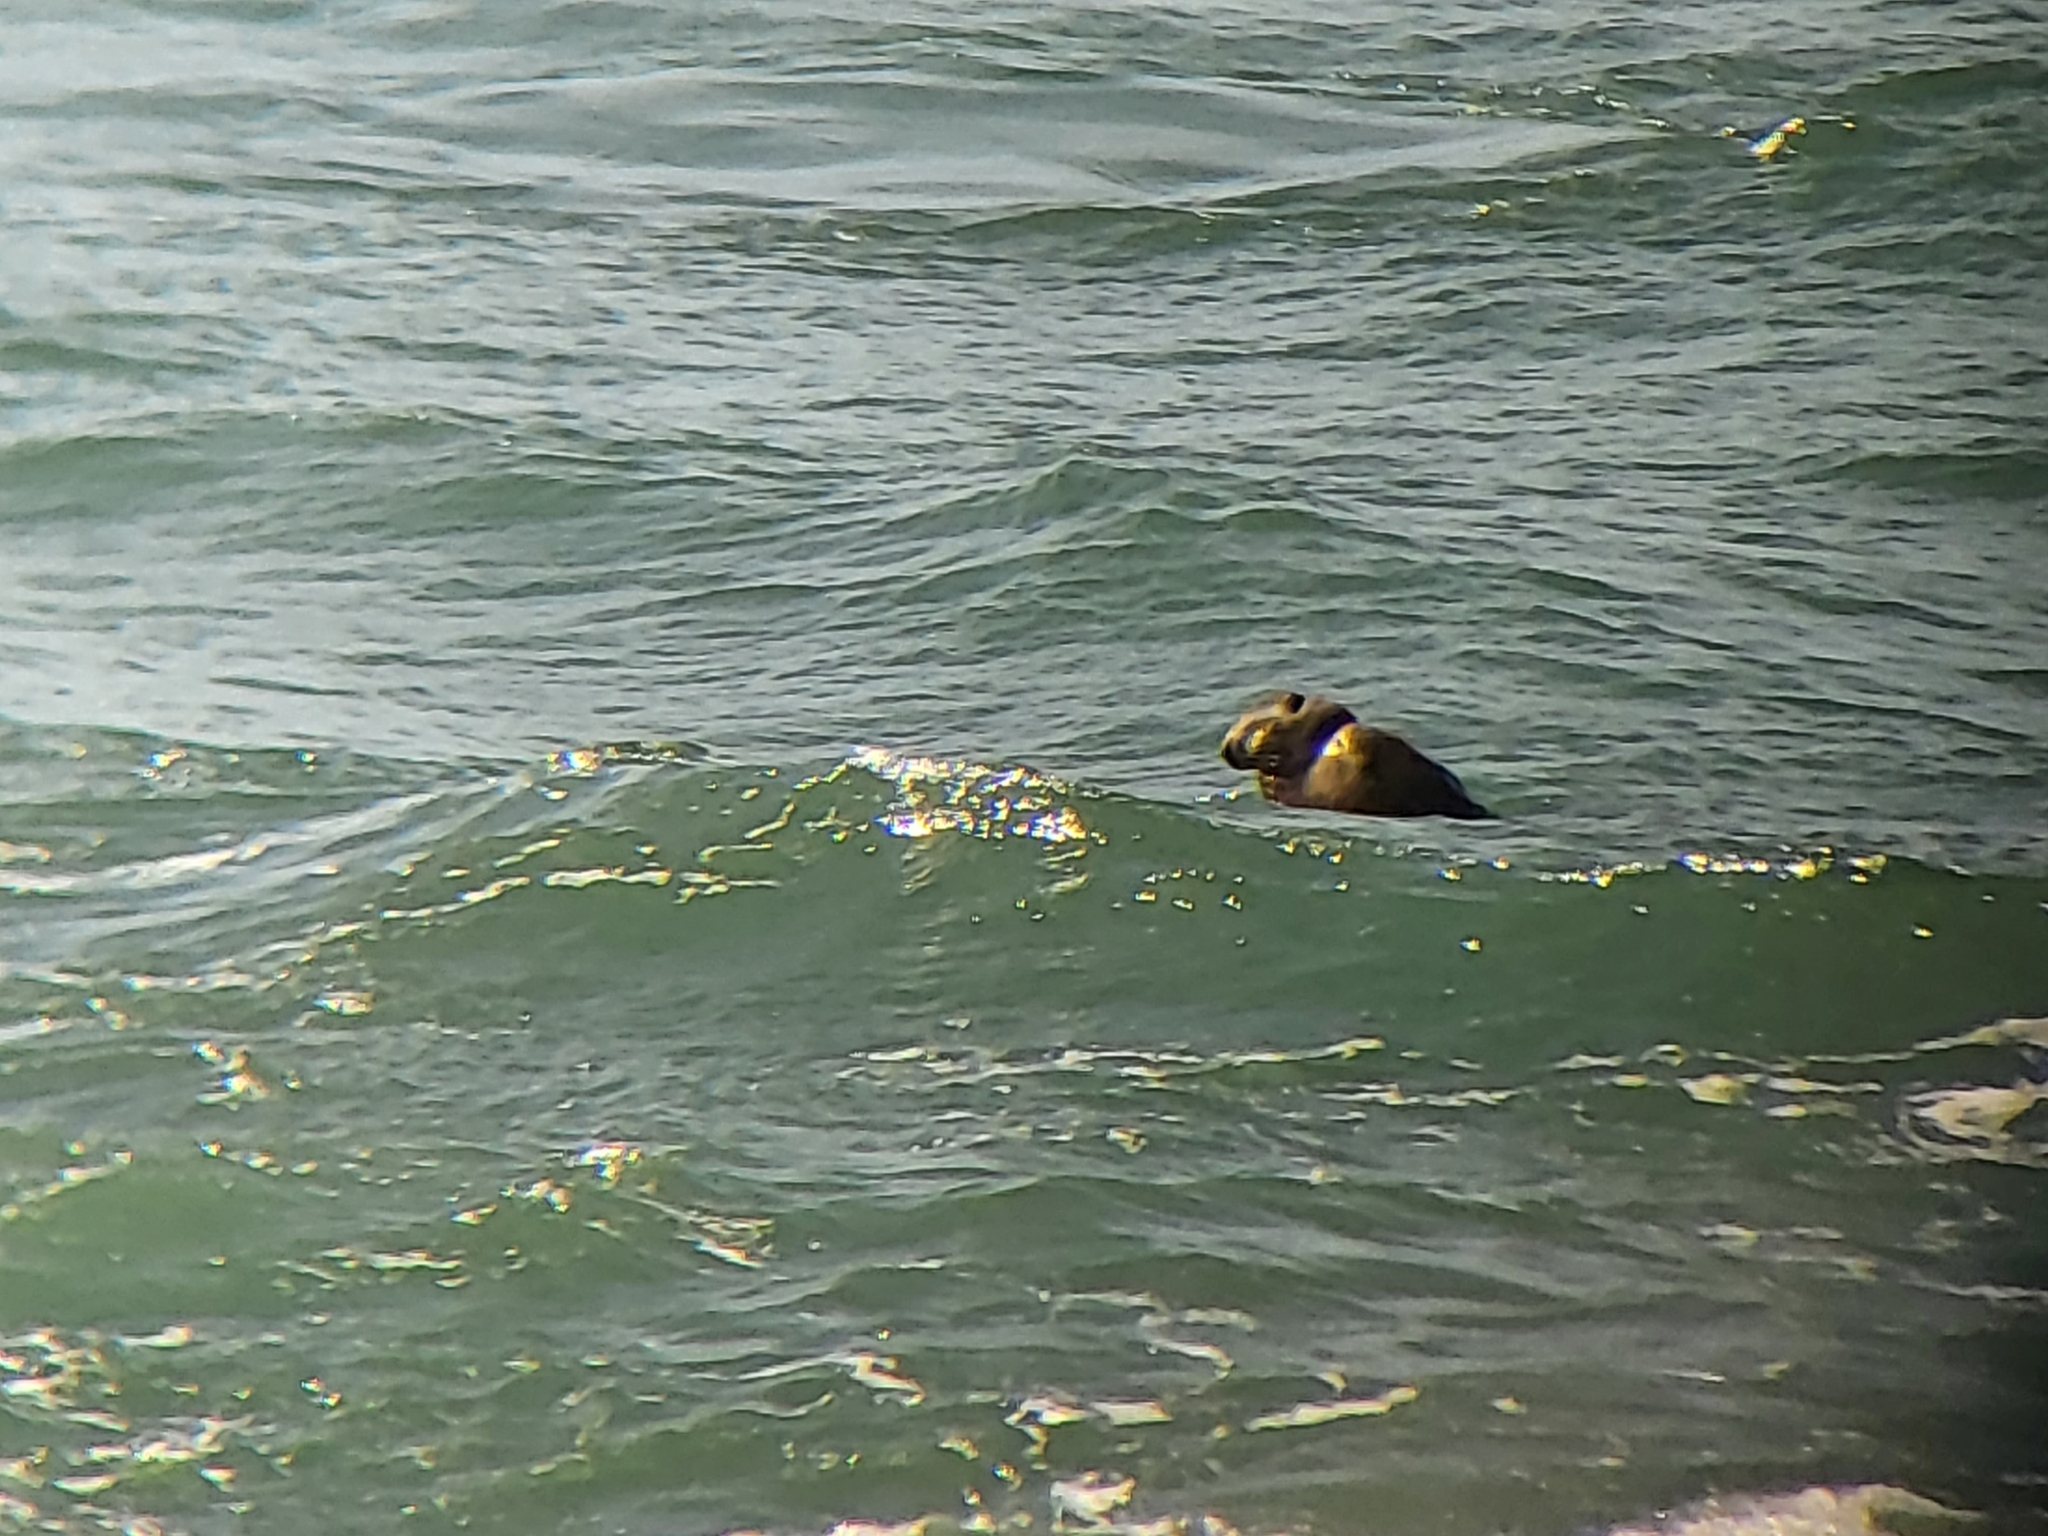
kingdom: Animalia
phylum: Chordata
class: Mammalia
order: Carnivora
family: Phocidae
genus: Mirounga
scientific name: Mirounga angustirostris
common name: Northern elephant seal
